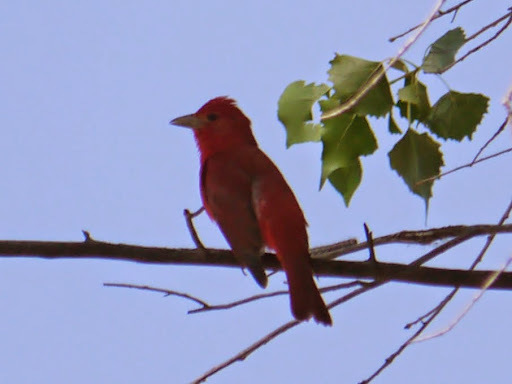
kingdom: Animalia
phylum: Chordata
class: Aves
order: Passeriformes
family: Cardinalidae
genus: Piranga
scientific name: Piranga rubra
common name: Summer tanager
